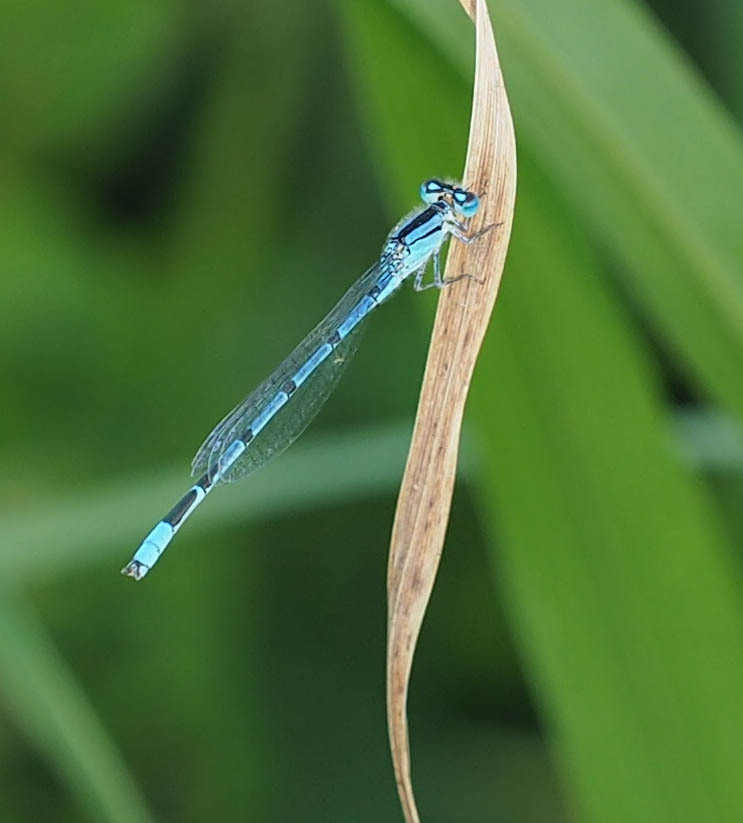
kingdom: Animalia
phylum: Arthropoda
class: Insecta
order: Odonata
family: Coenagrionidae
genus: Enallagma
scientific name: Enallagma civile
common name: Damselfly
